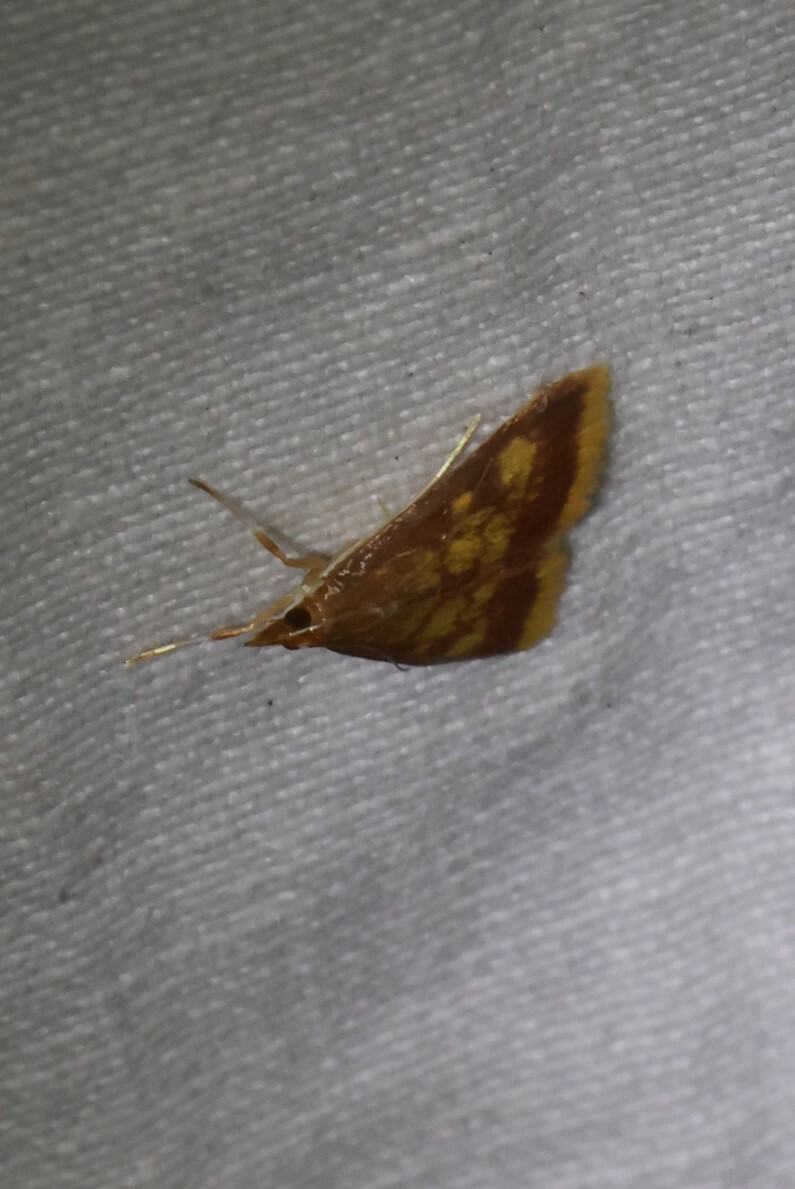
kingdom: Animalia
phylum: Arthropoda
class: Insecta
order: Lepidoptera
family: Crambidae
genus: Pyrausta
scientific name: Pyrausta acrionalis
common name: Mint-loving pyrausta moth
